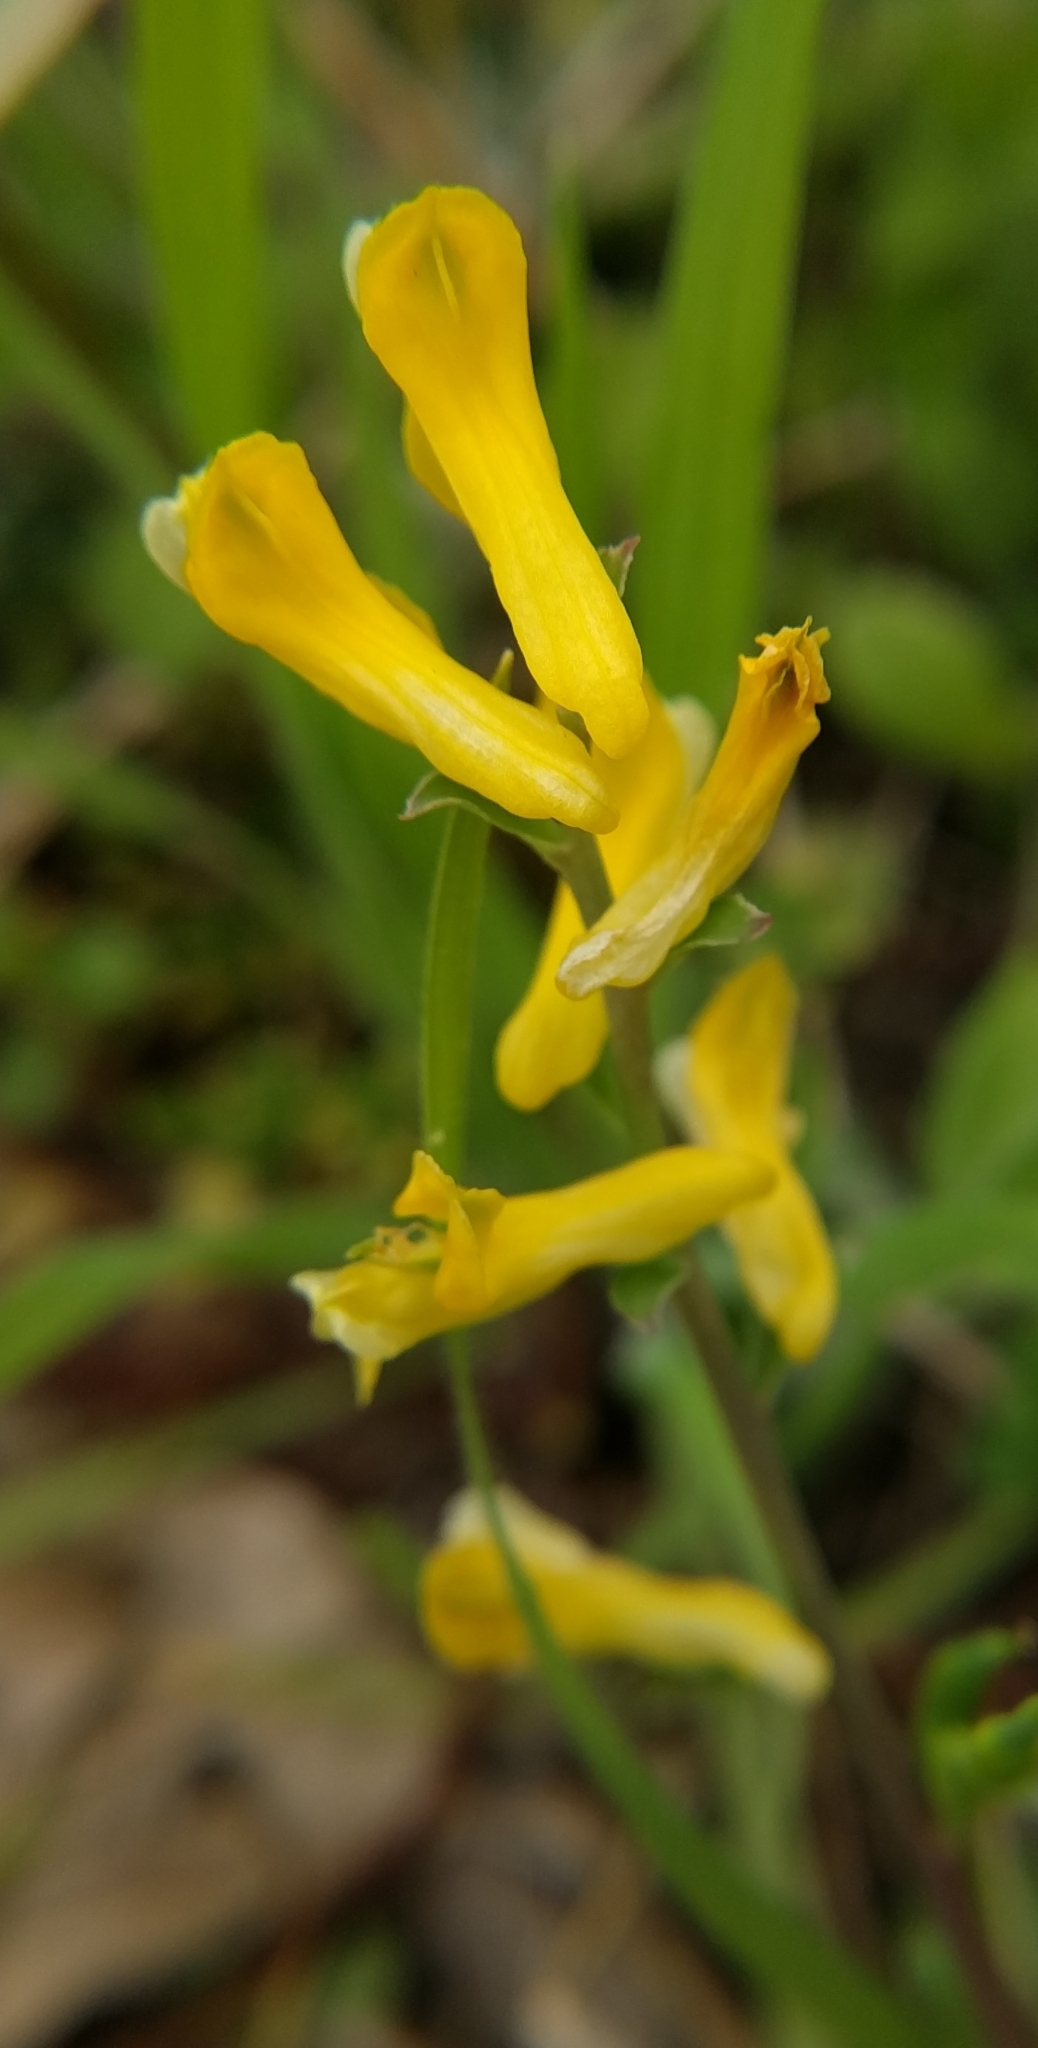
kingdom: Plantae
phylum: Tracheophyta
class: Magnoliopsida
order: Ranunculales
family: Papaveraceae
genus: Corydalis
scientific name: Corydalis aurea
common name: Golden corydalis
